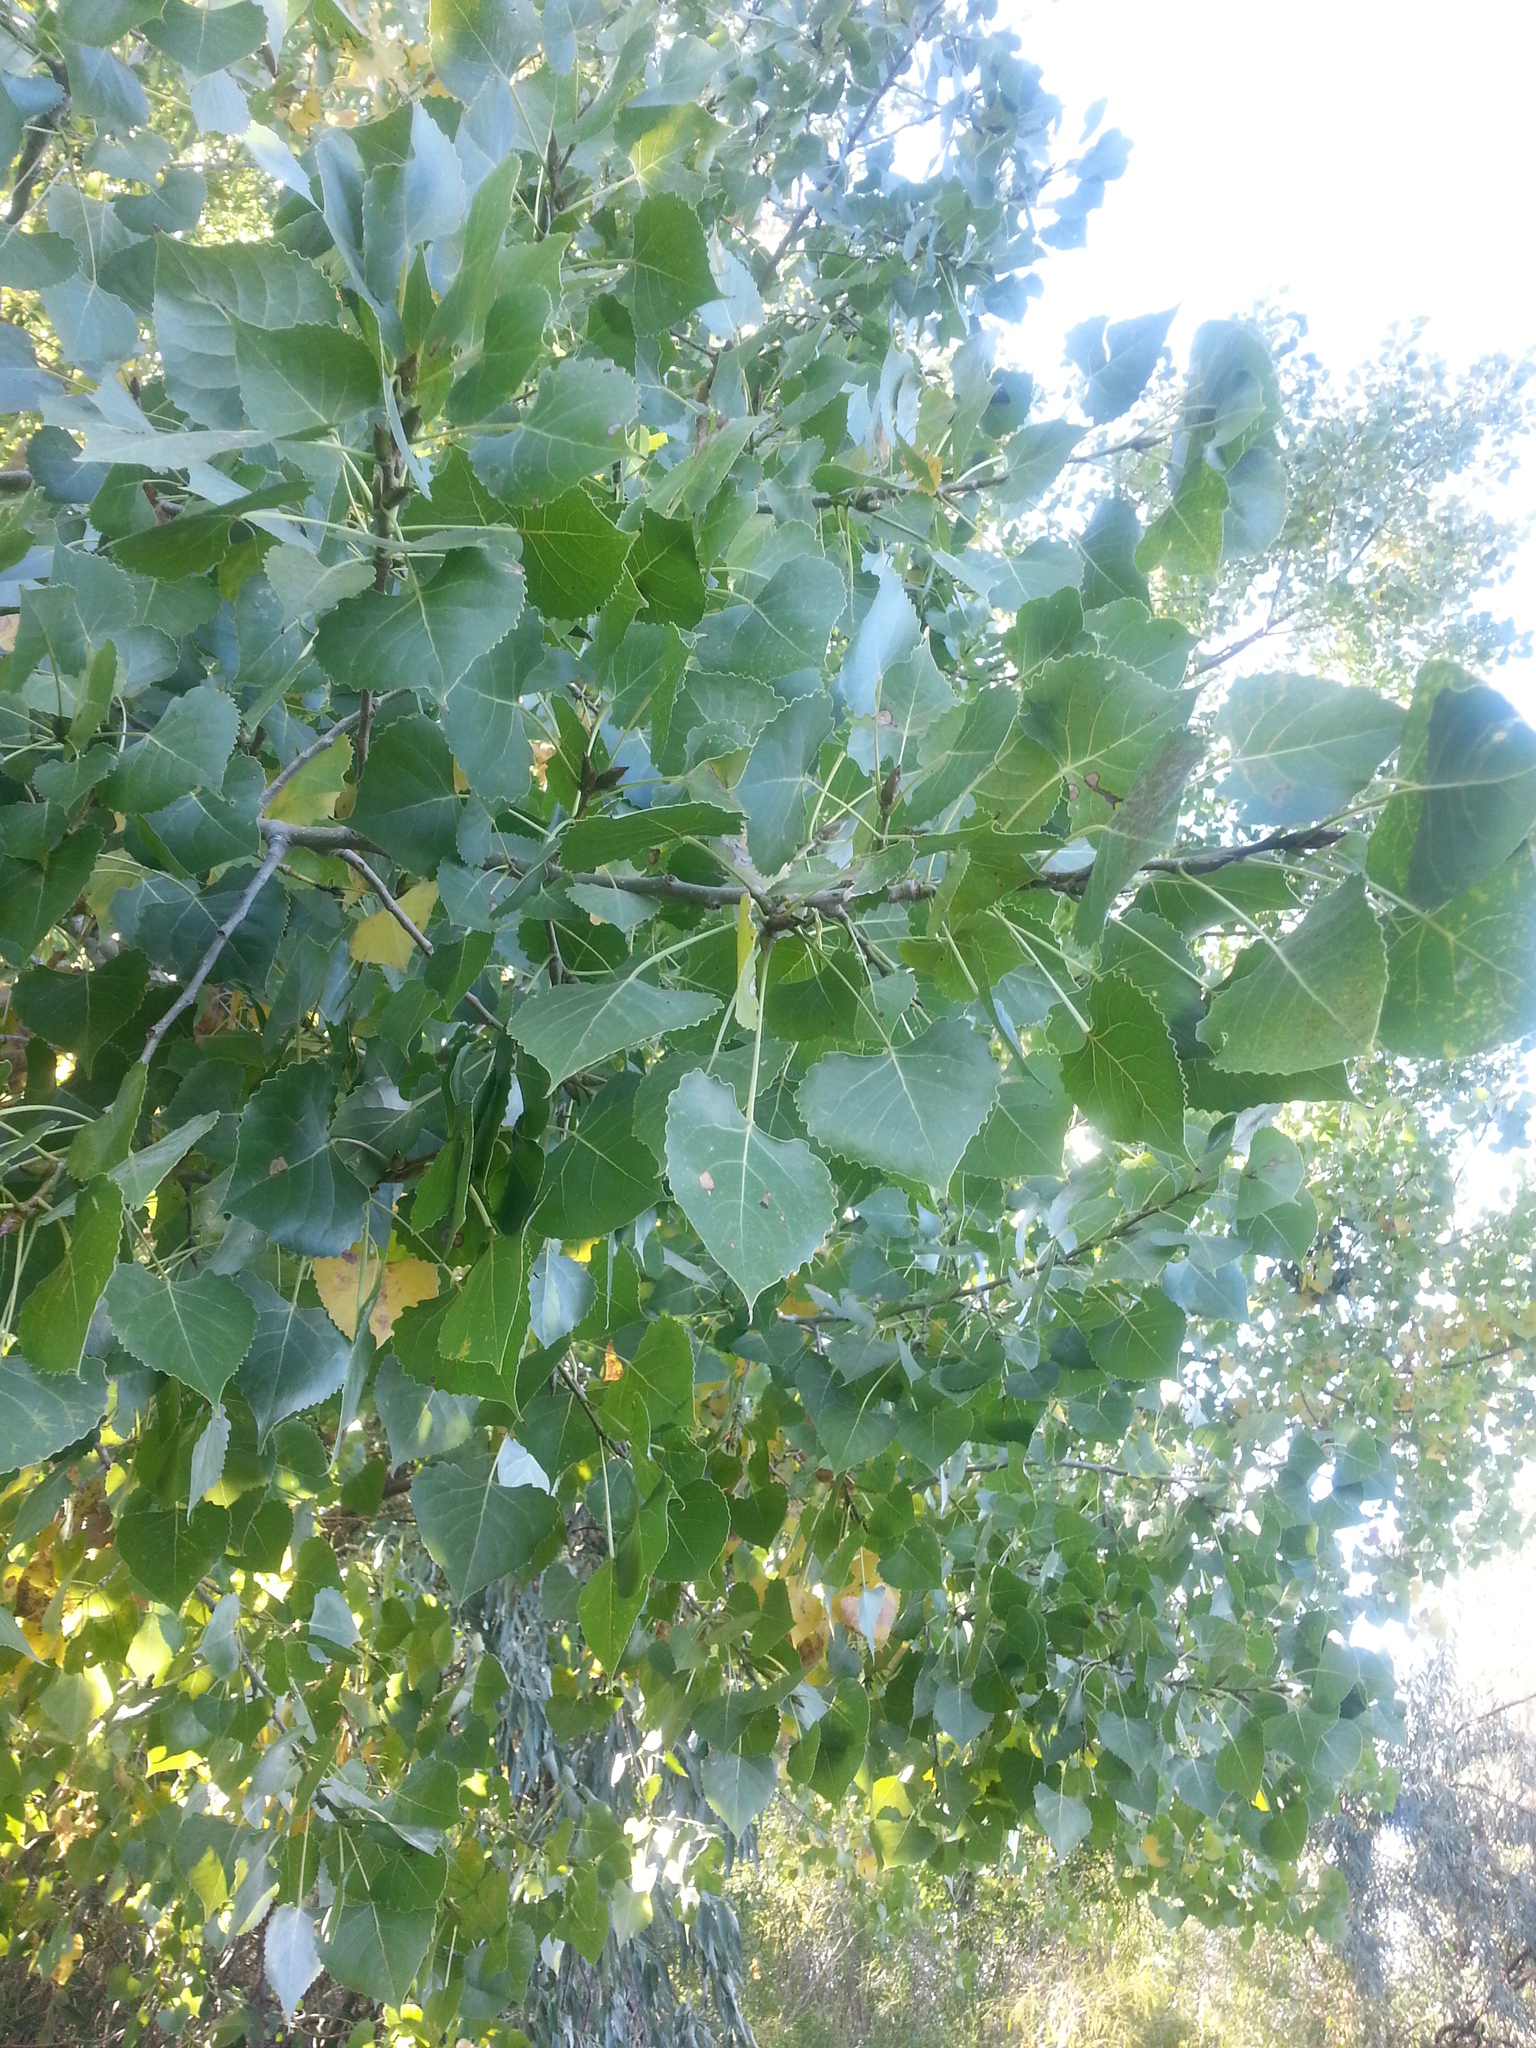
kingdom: Plantae
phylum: Tracheophyta
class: Magnoliopsida
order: Malpighiales
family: Salicaceae
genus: Populus
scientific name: Populus deltoides
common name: Eastern cottonwood
